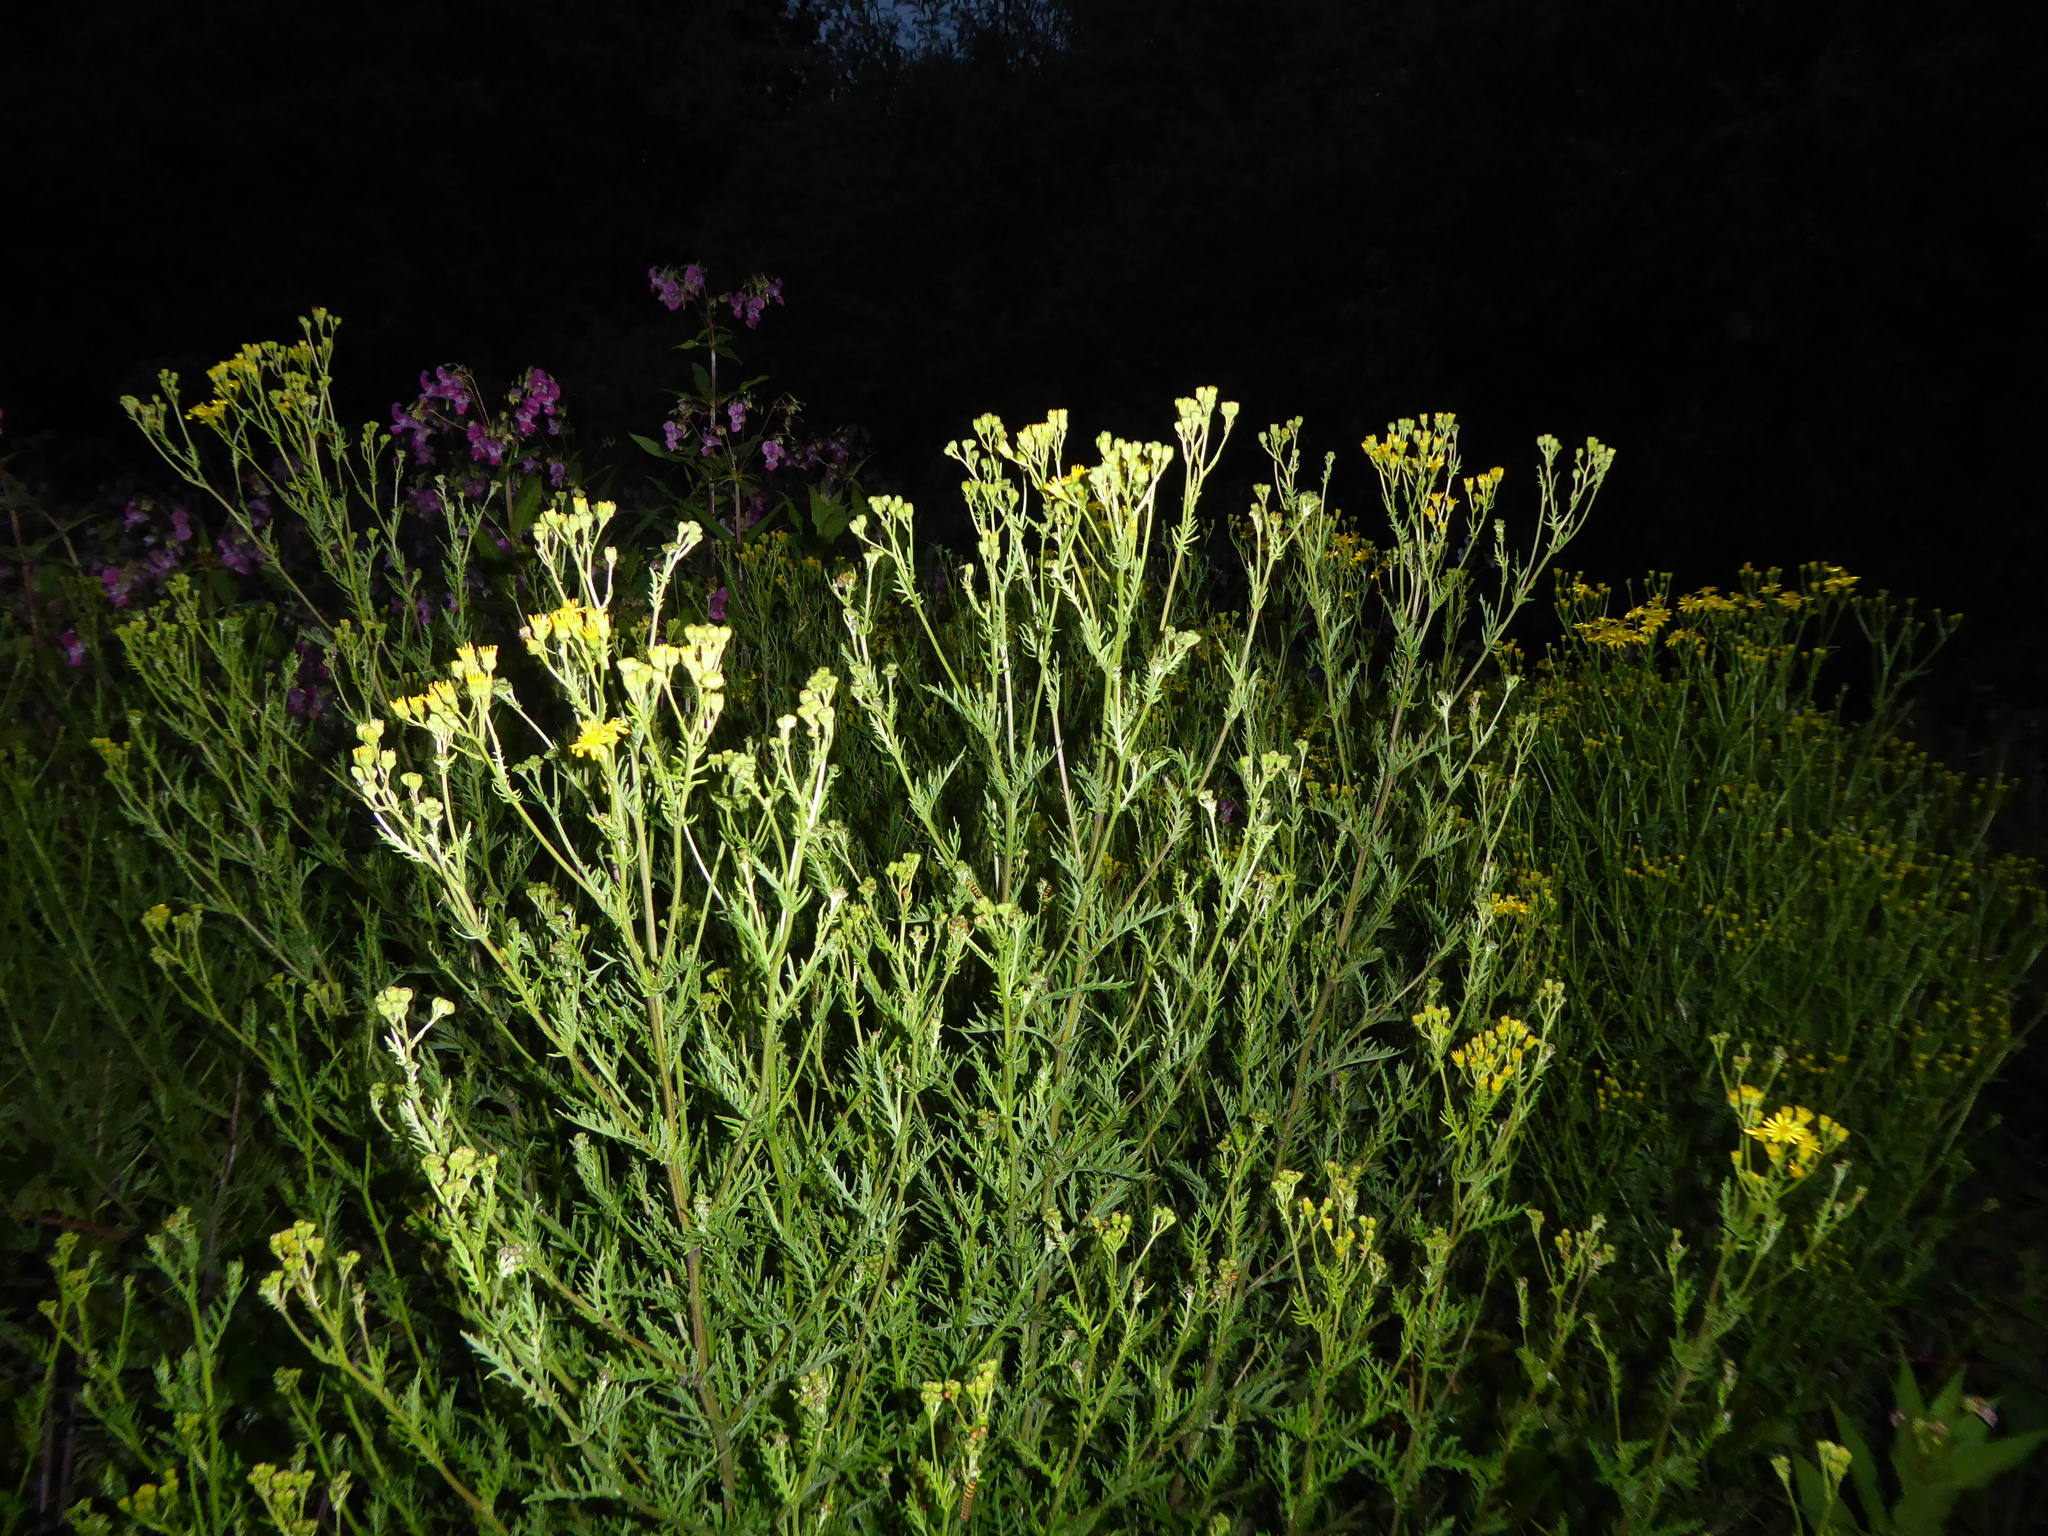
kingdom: Plantae
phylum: Tracheophyta
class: Magnoliopsida
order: Asterales
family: Asteraceae
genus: Jacobaea
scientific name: Jacobaea erucifolia
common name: Hoary ragwort
